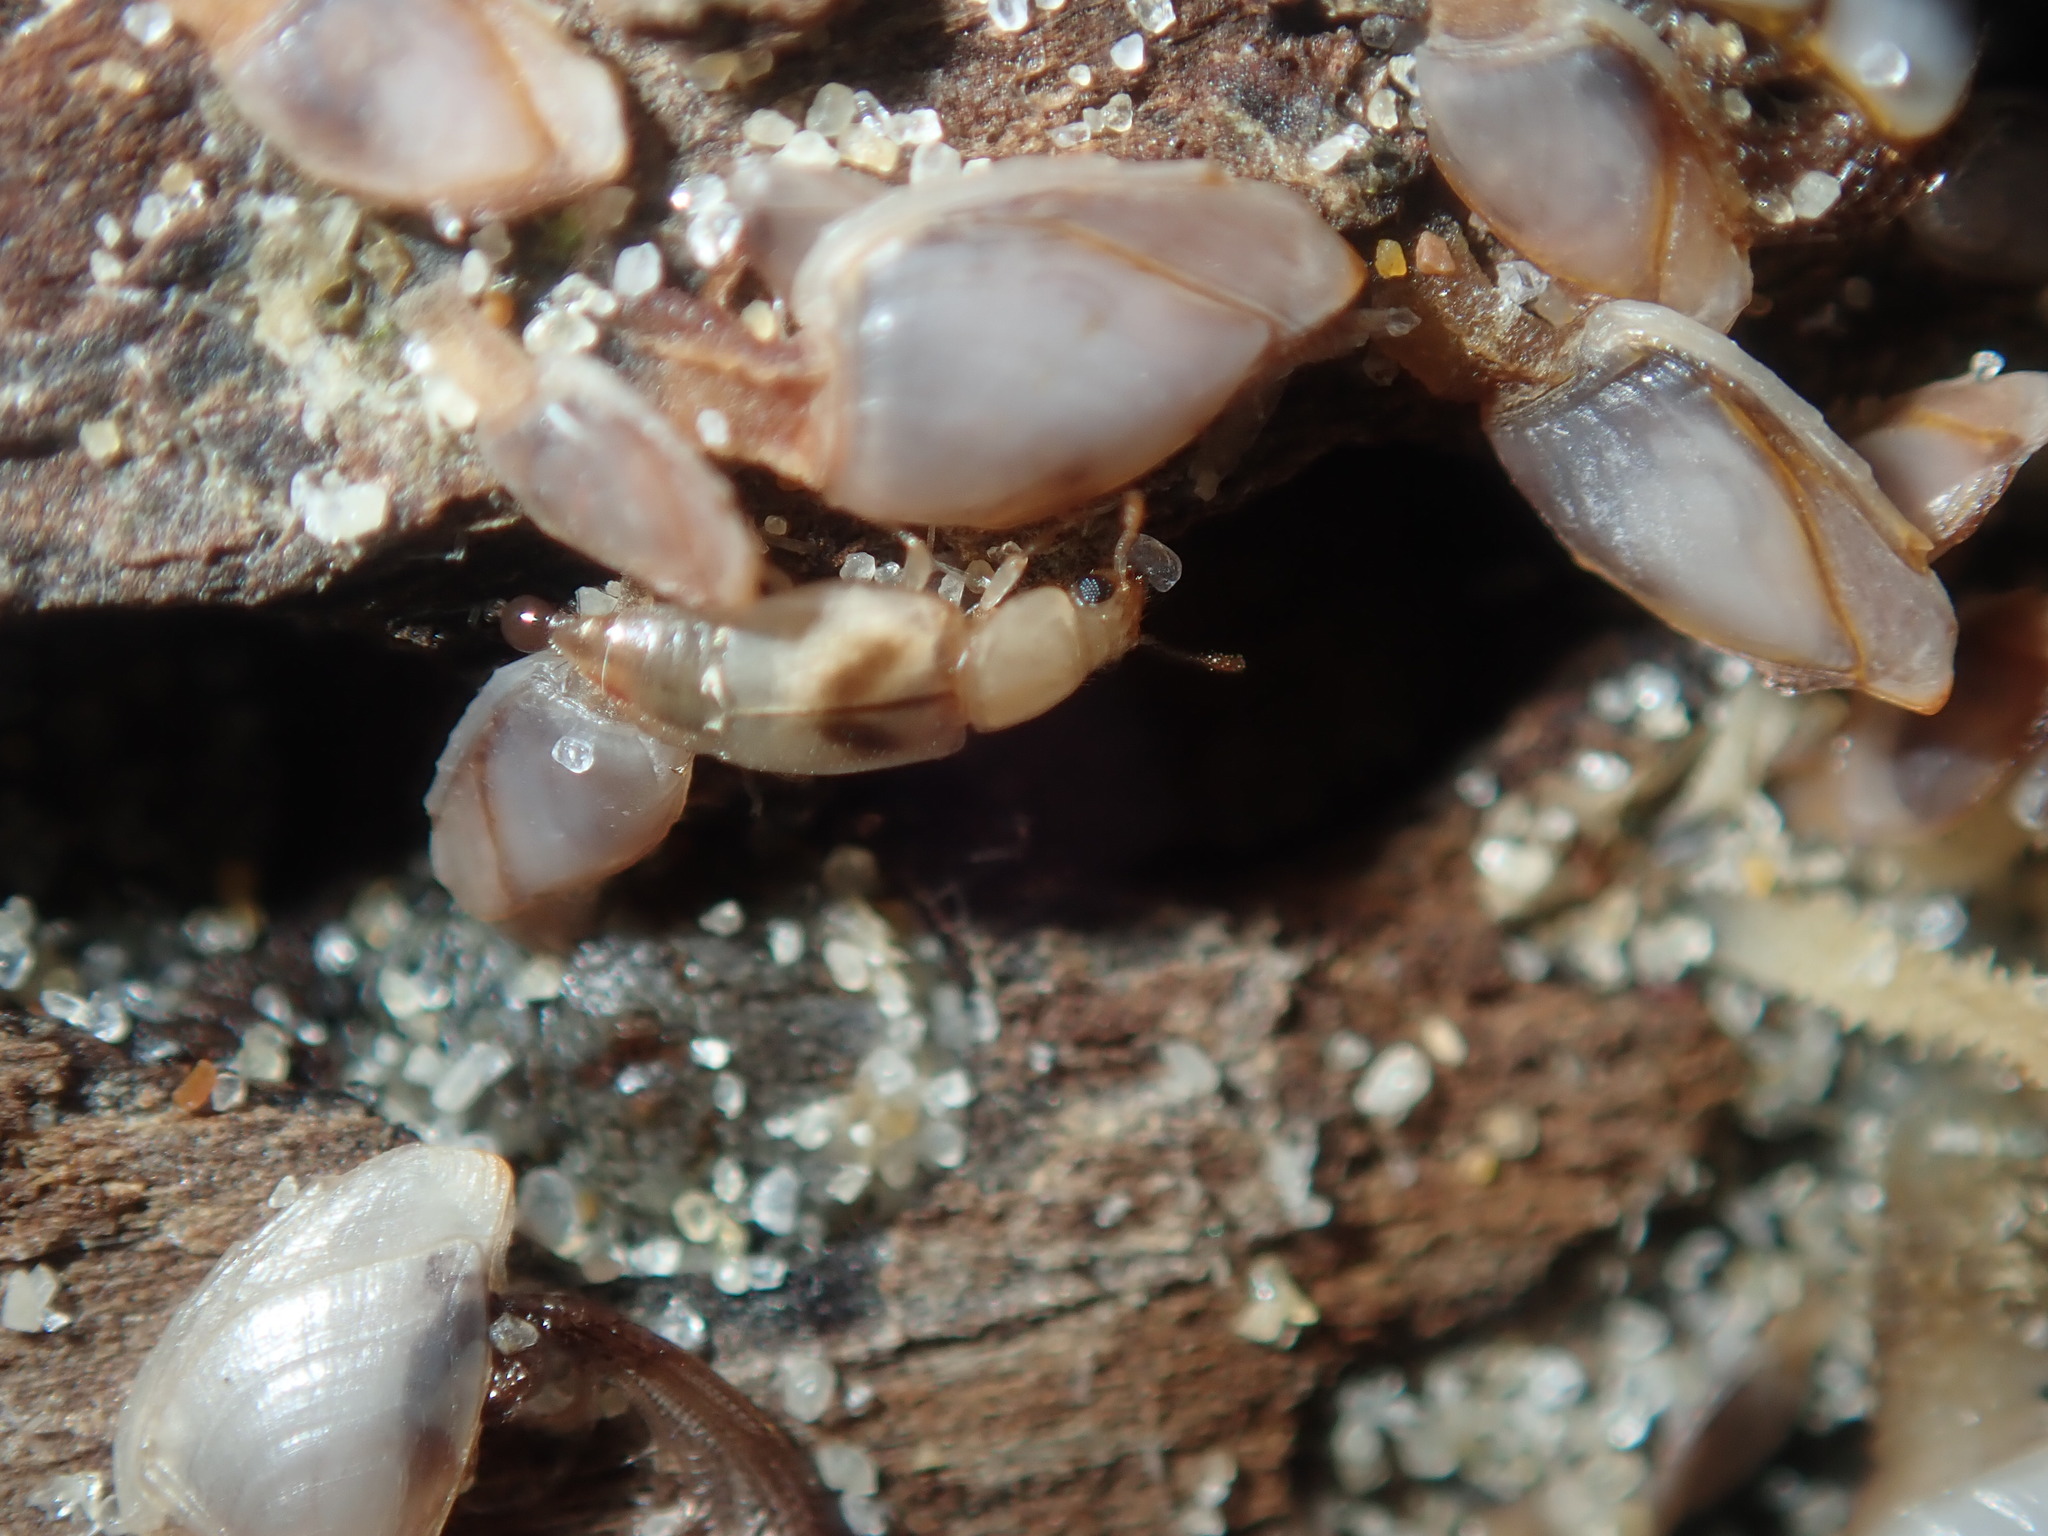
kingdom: Animalia
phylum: Arthropoda
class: Insecta
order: Coleoptera
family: Staphylinidae
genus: Sartallus
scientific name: Sartallus signatus
